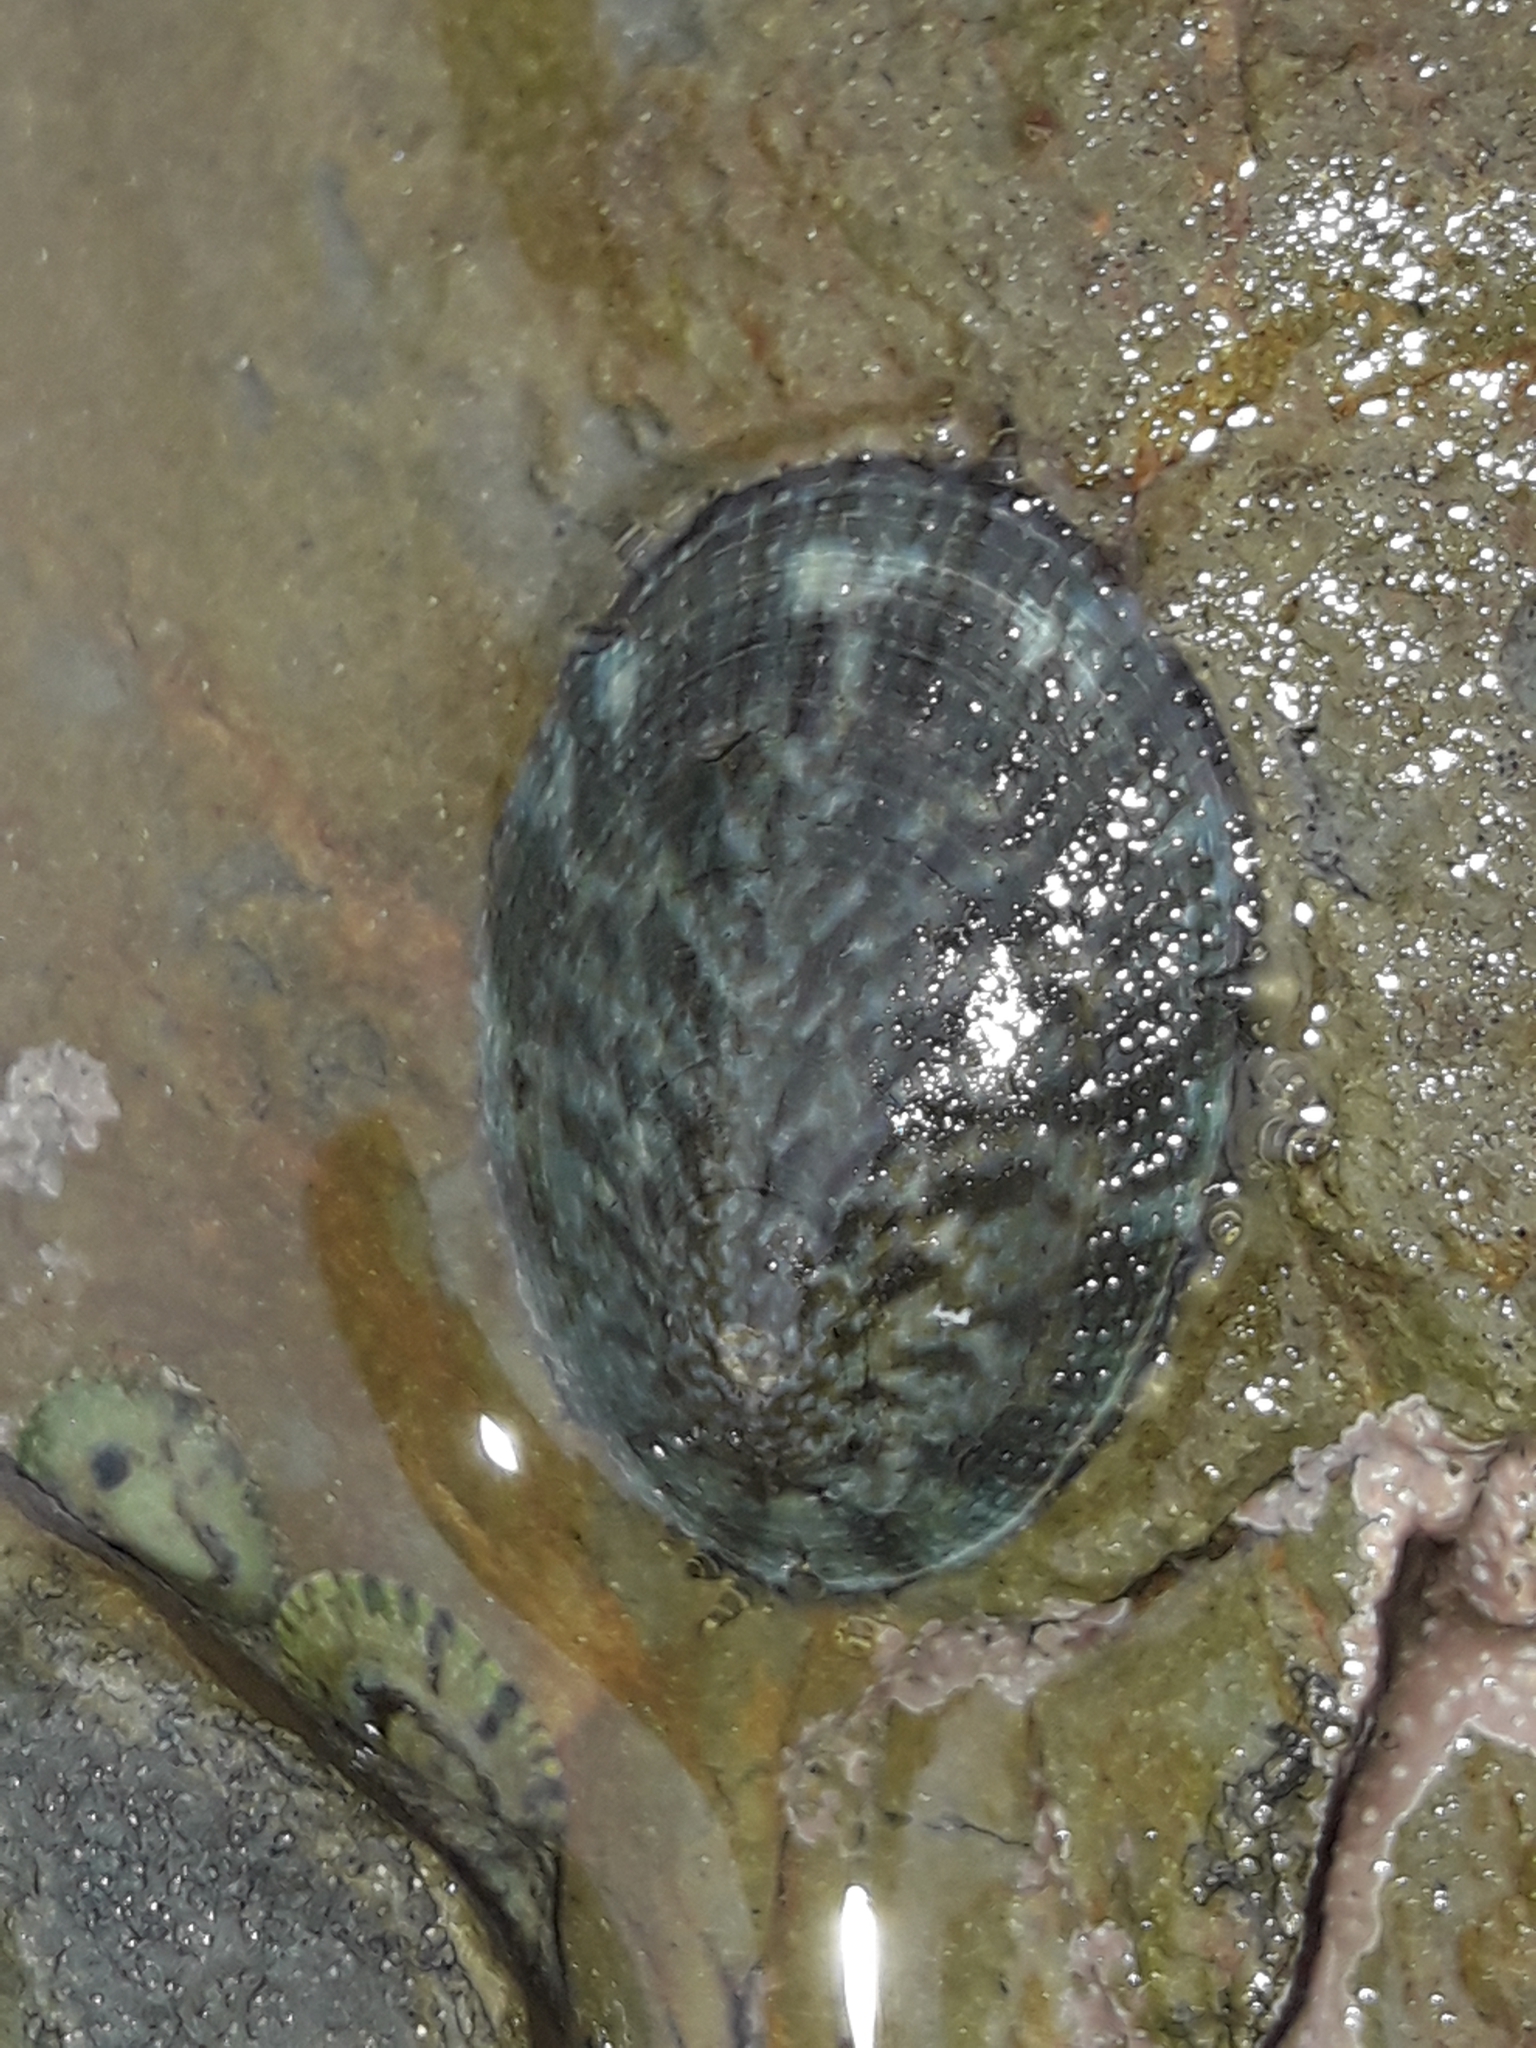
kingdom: Animalia
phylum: Mollusca
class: Gastropoda
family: Nacellidae
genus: Cellana
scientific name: Cellana radians
